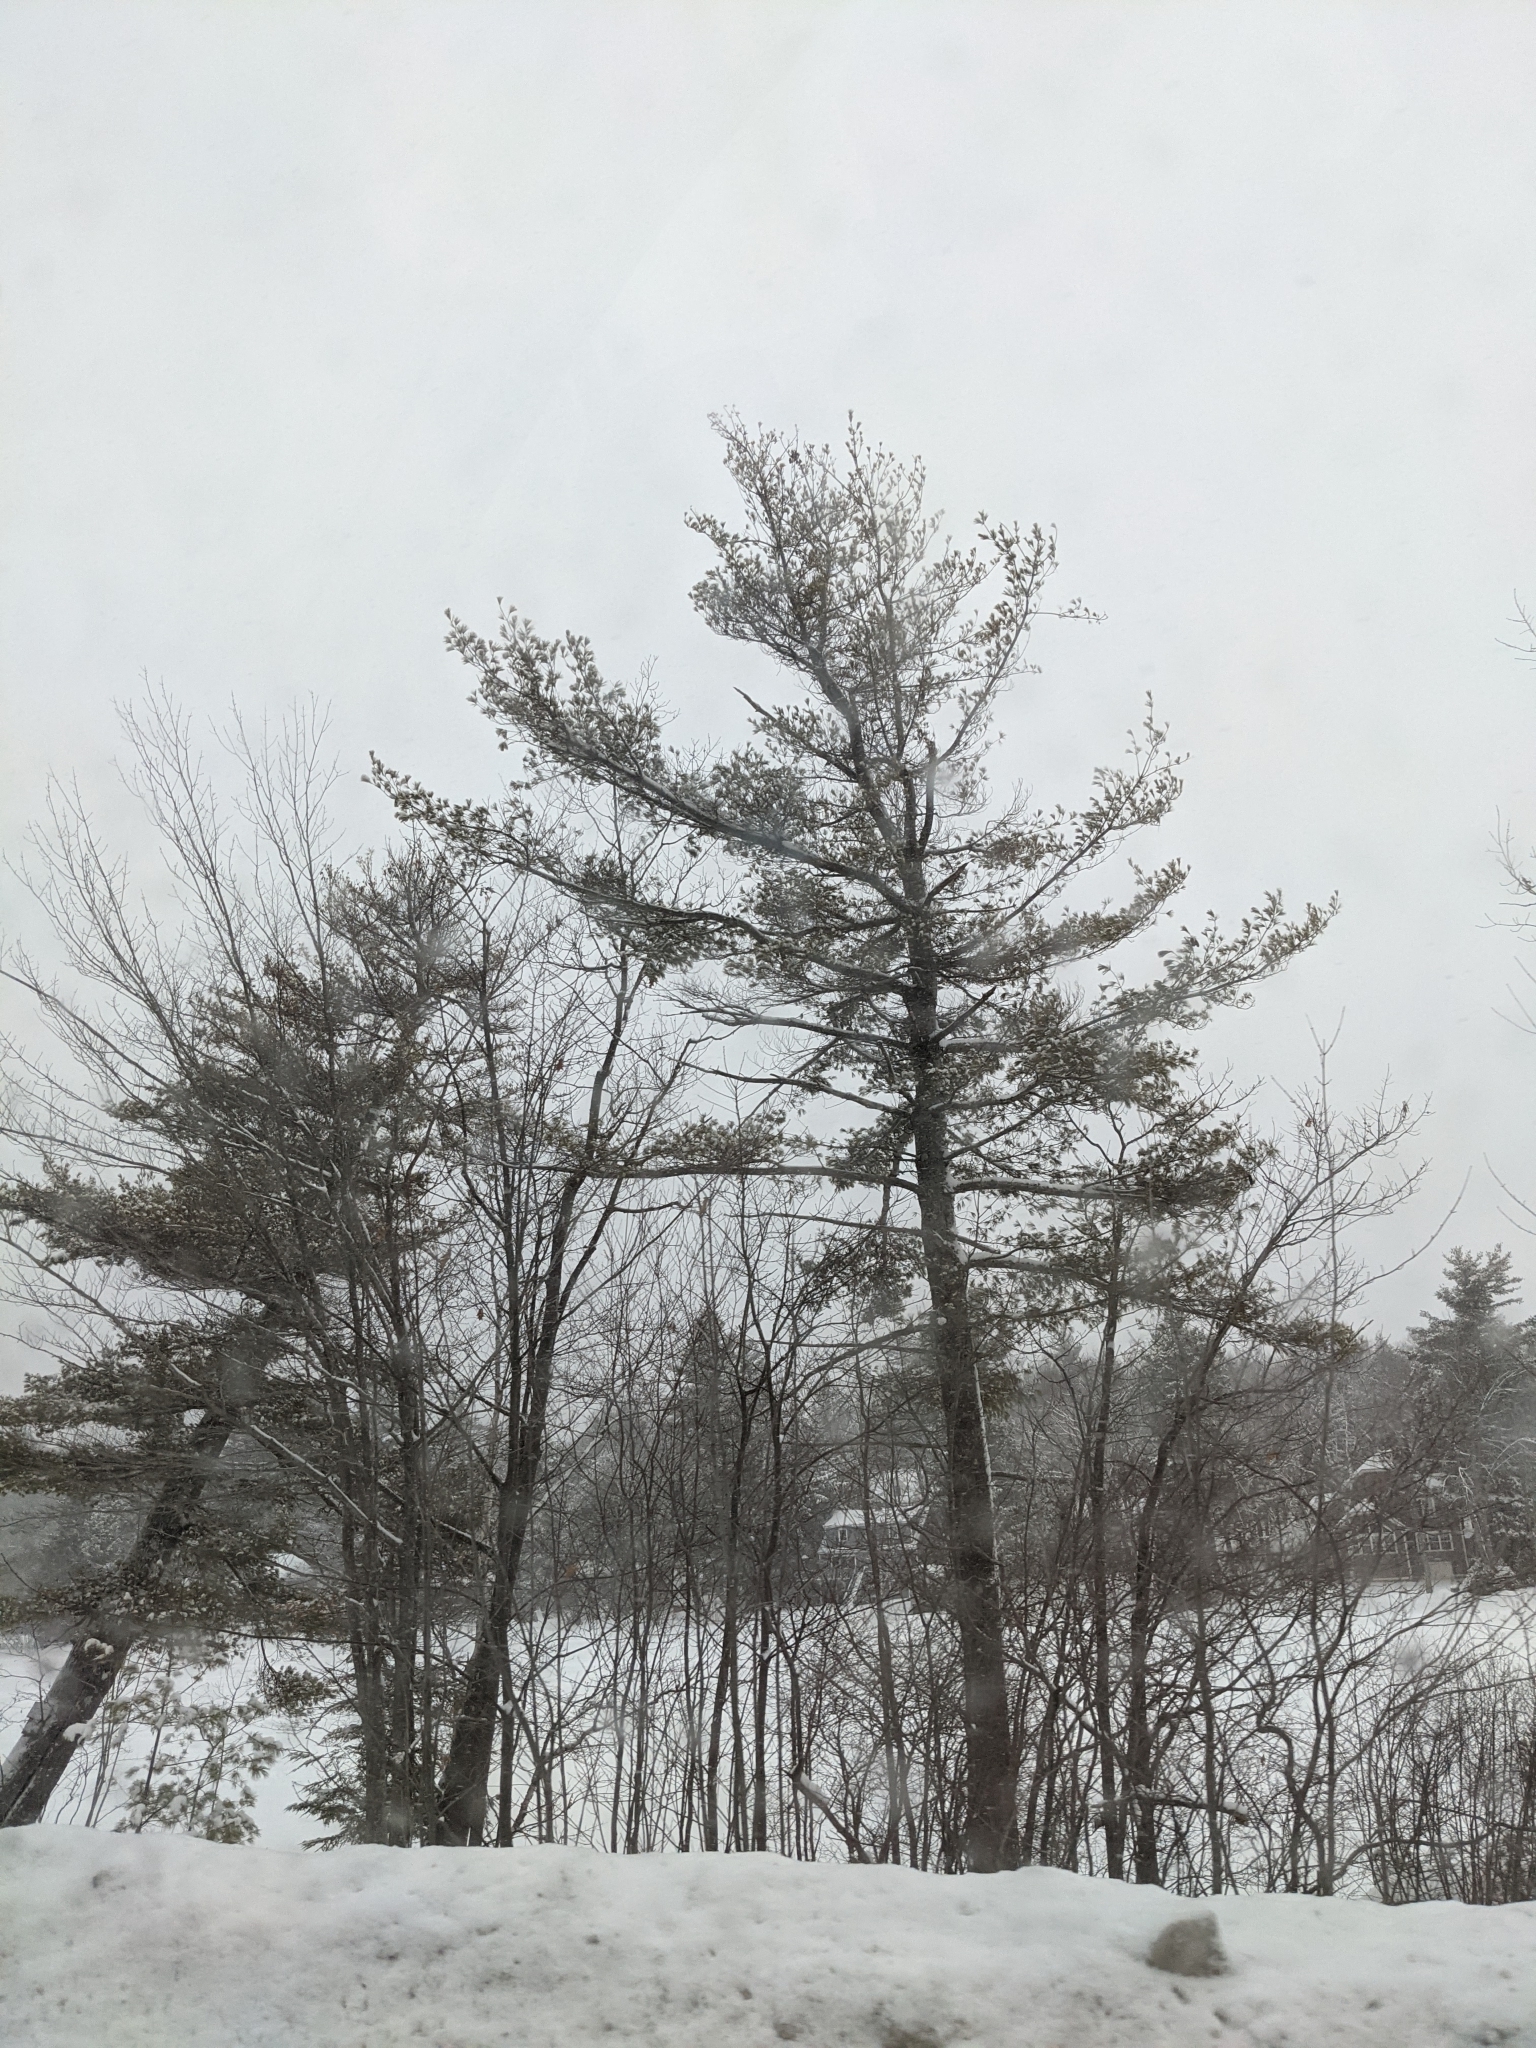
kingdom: Plantae
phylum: Tracheophyta
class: Pinopsida
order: Pinales
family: Pinaceae
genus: Pinus
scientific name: Pinus strobus
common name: Weymouth pine
